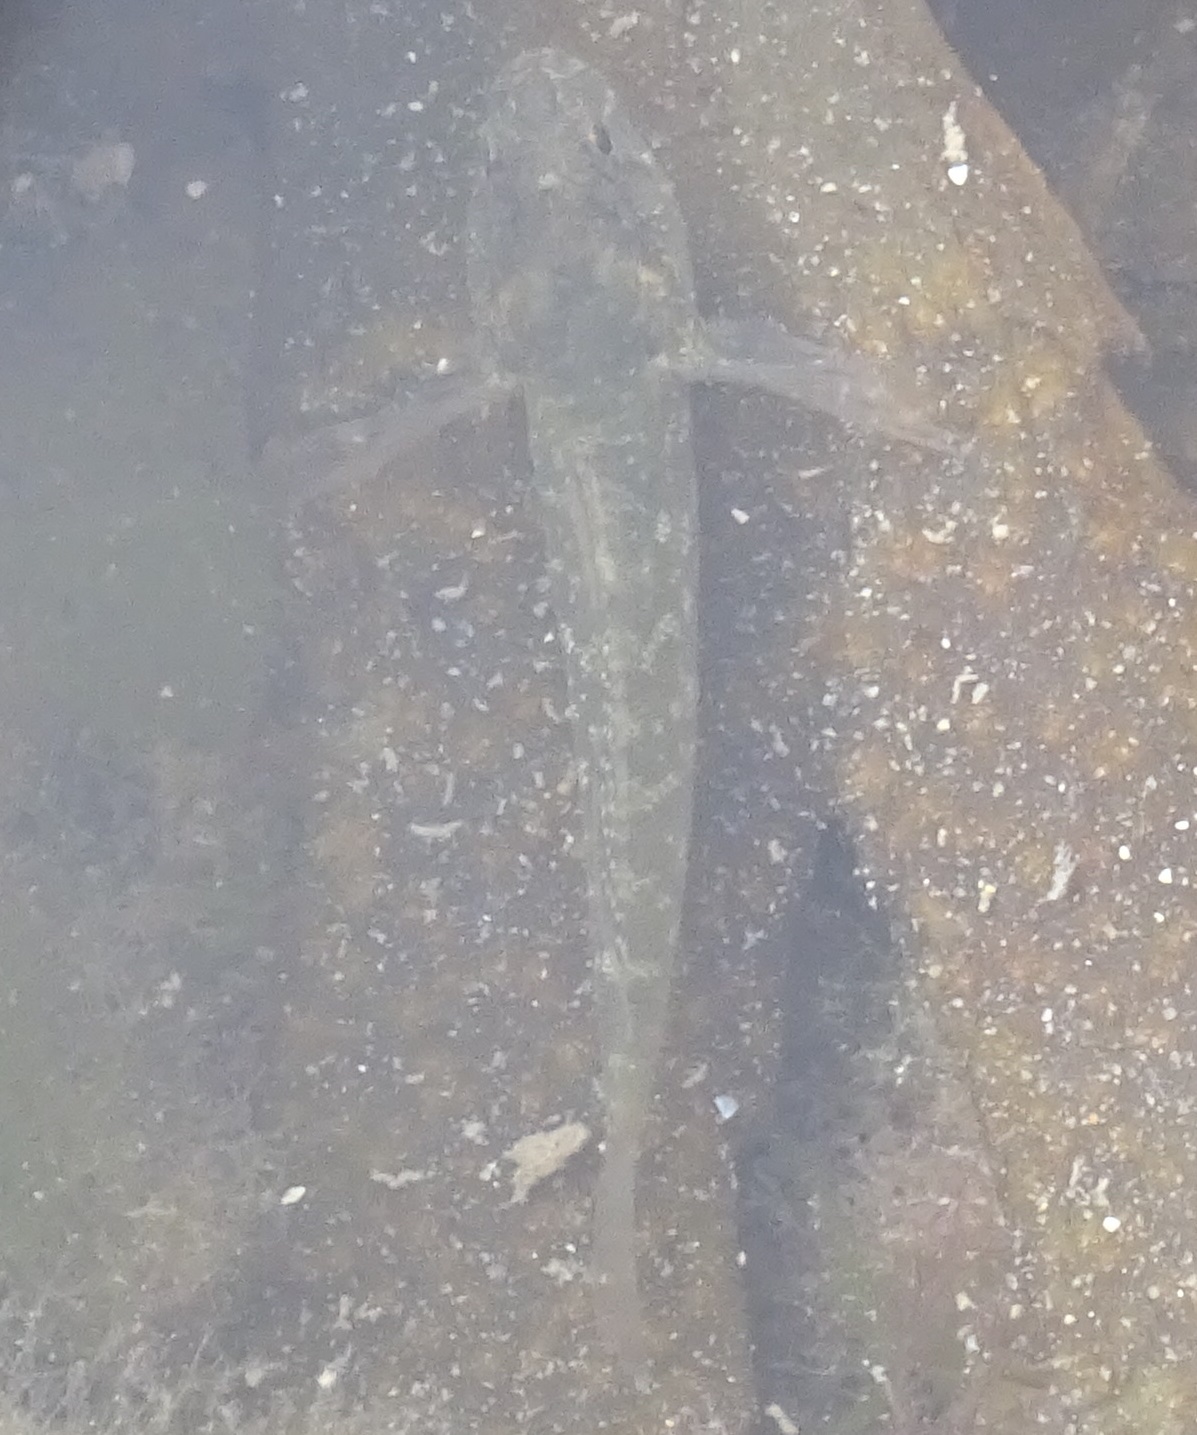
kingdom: Animalia
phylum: Chordata
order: Perciformes
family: Gobiidae
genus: Gobius
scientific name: Gobius paganellus
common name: Rock goby
